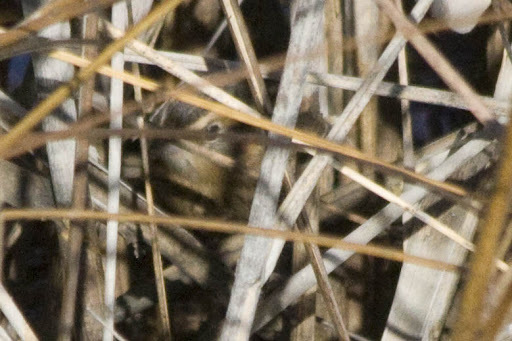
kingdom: Animalia
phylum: Chordata
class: Aves
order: Passeriformes
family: Passerellidae
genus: Ammospiza
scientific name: Ammospiza nelsoni
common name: Nelson's sparrow
